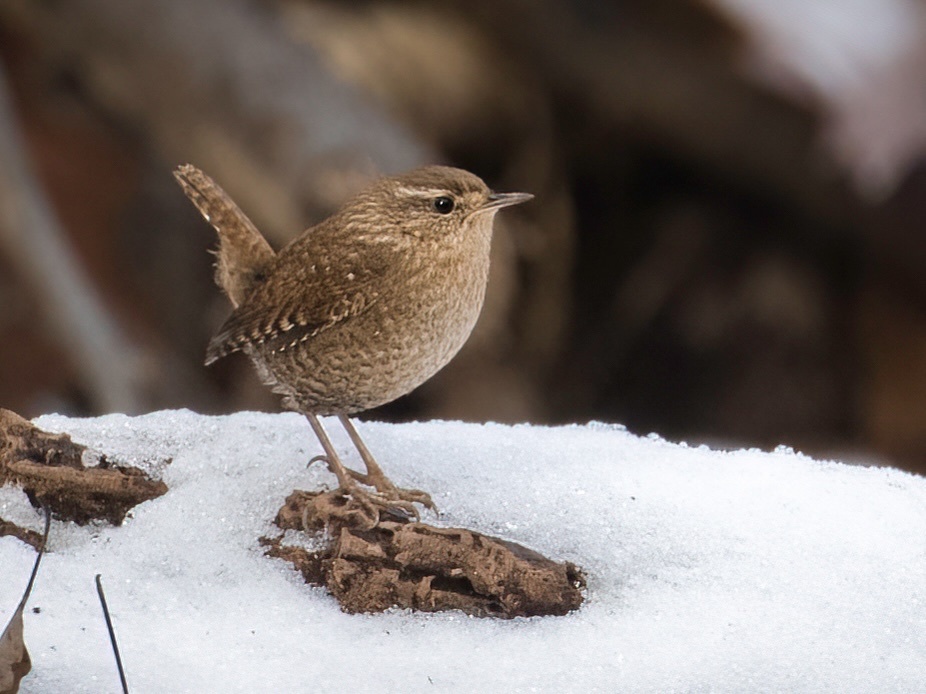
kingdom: Animalia
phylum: Chordata
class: Aves
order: Passeriformes
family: Troglodytidae
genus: Troglodytes
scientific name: Troglodytes hiemalis
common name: Winter wren
